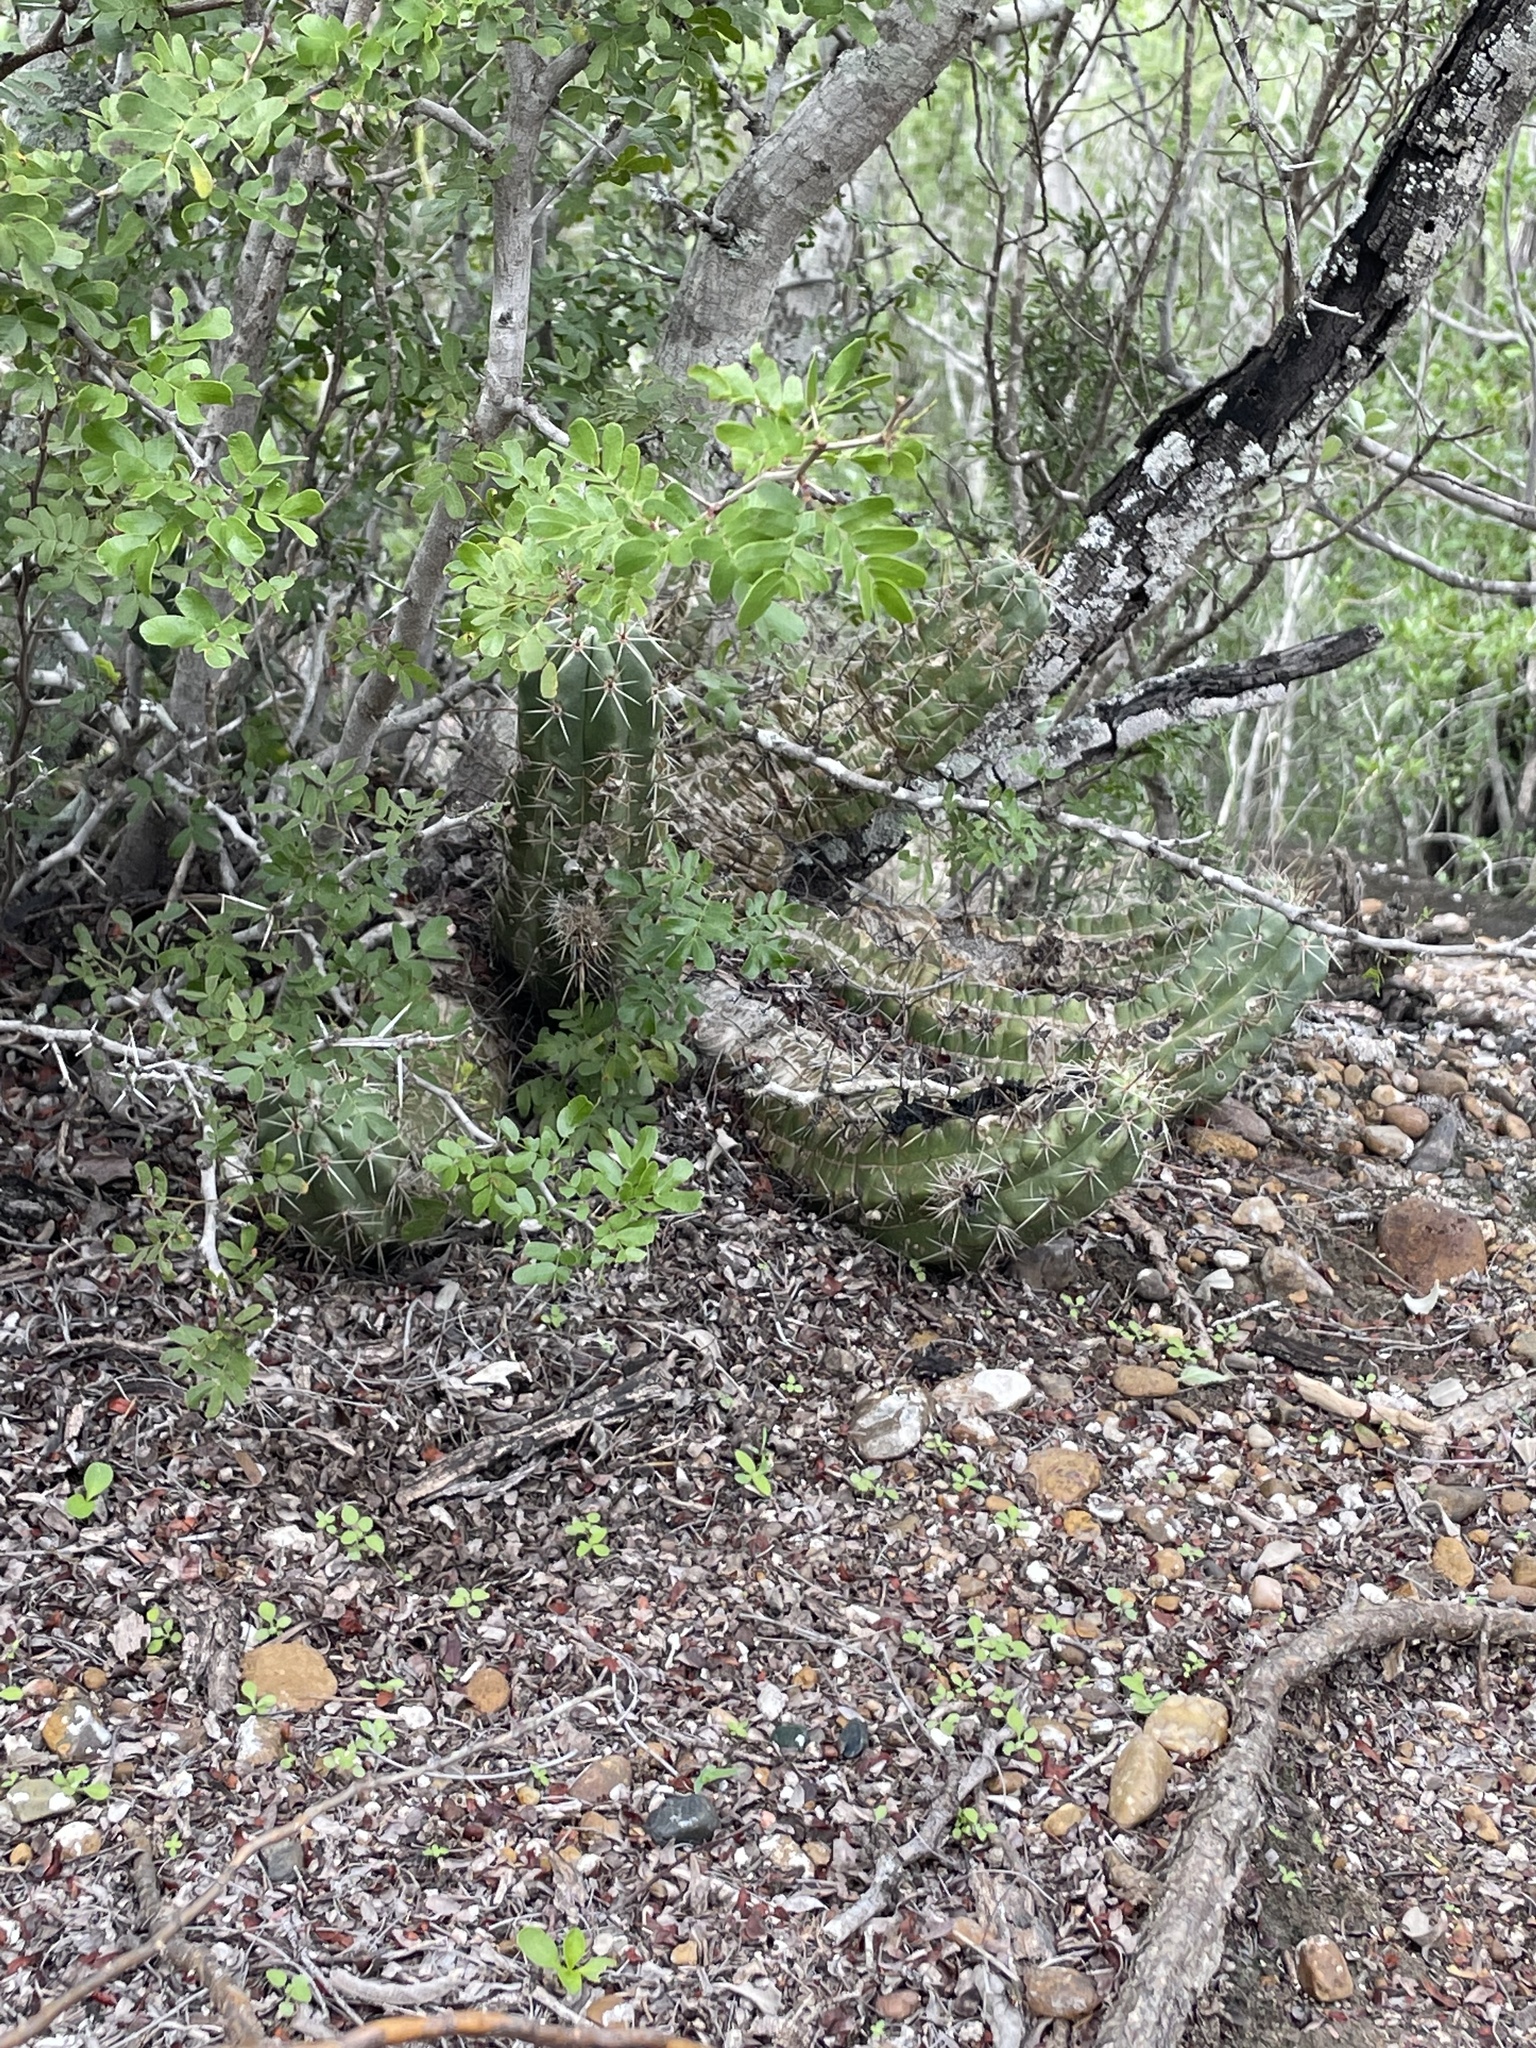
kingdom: Plantae
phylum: Tracheophyta
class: Magnoliopsida
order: Caryophyllales
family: Cactaceae
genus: Echinocereus
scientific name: Echinocereus enneacanthus
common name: Pitaya
